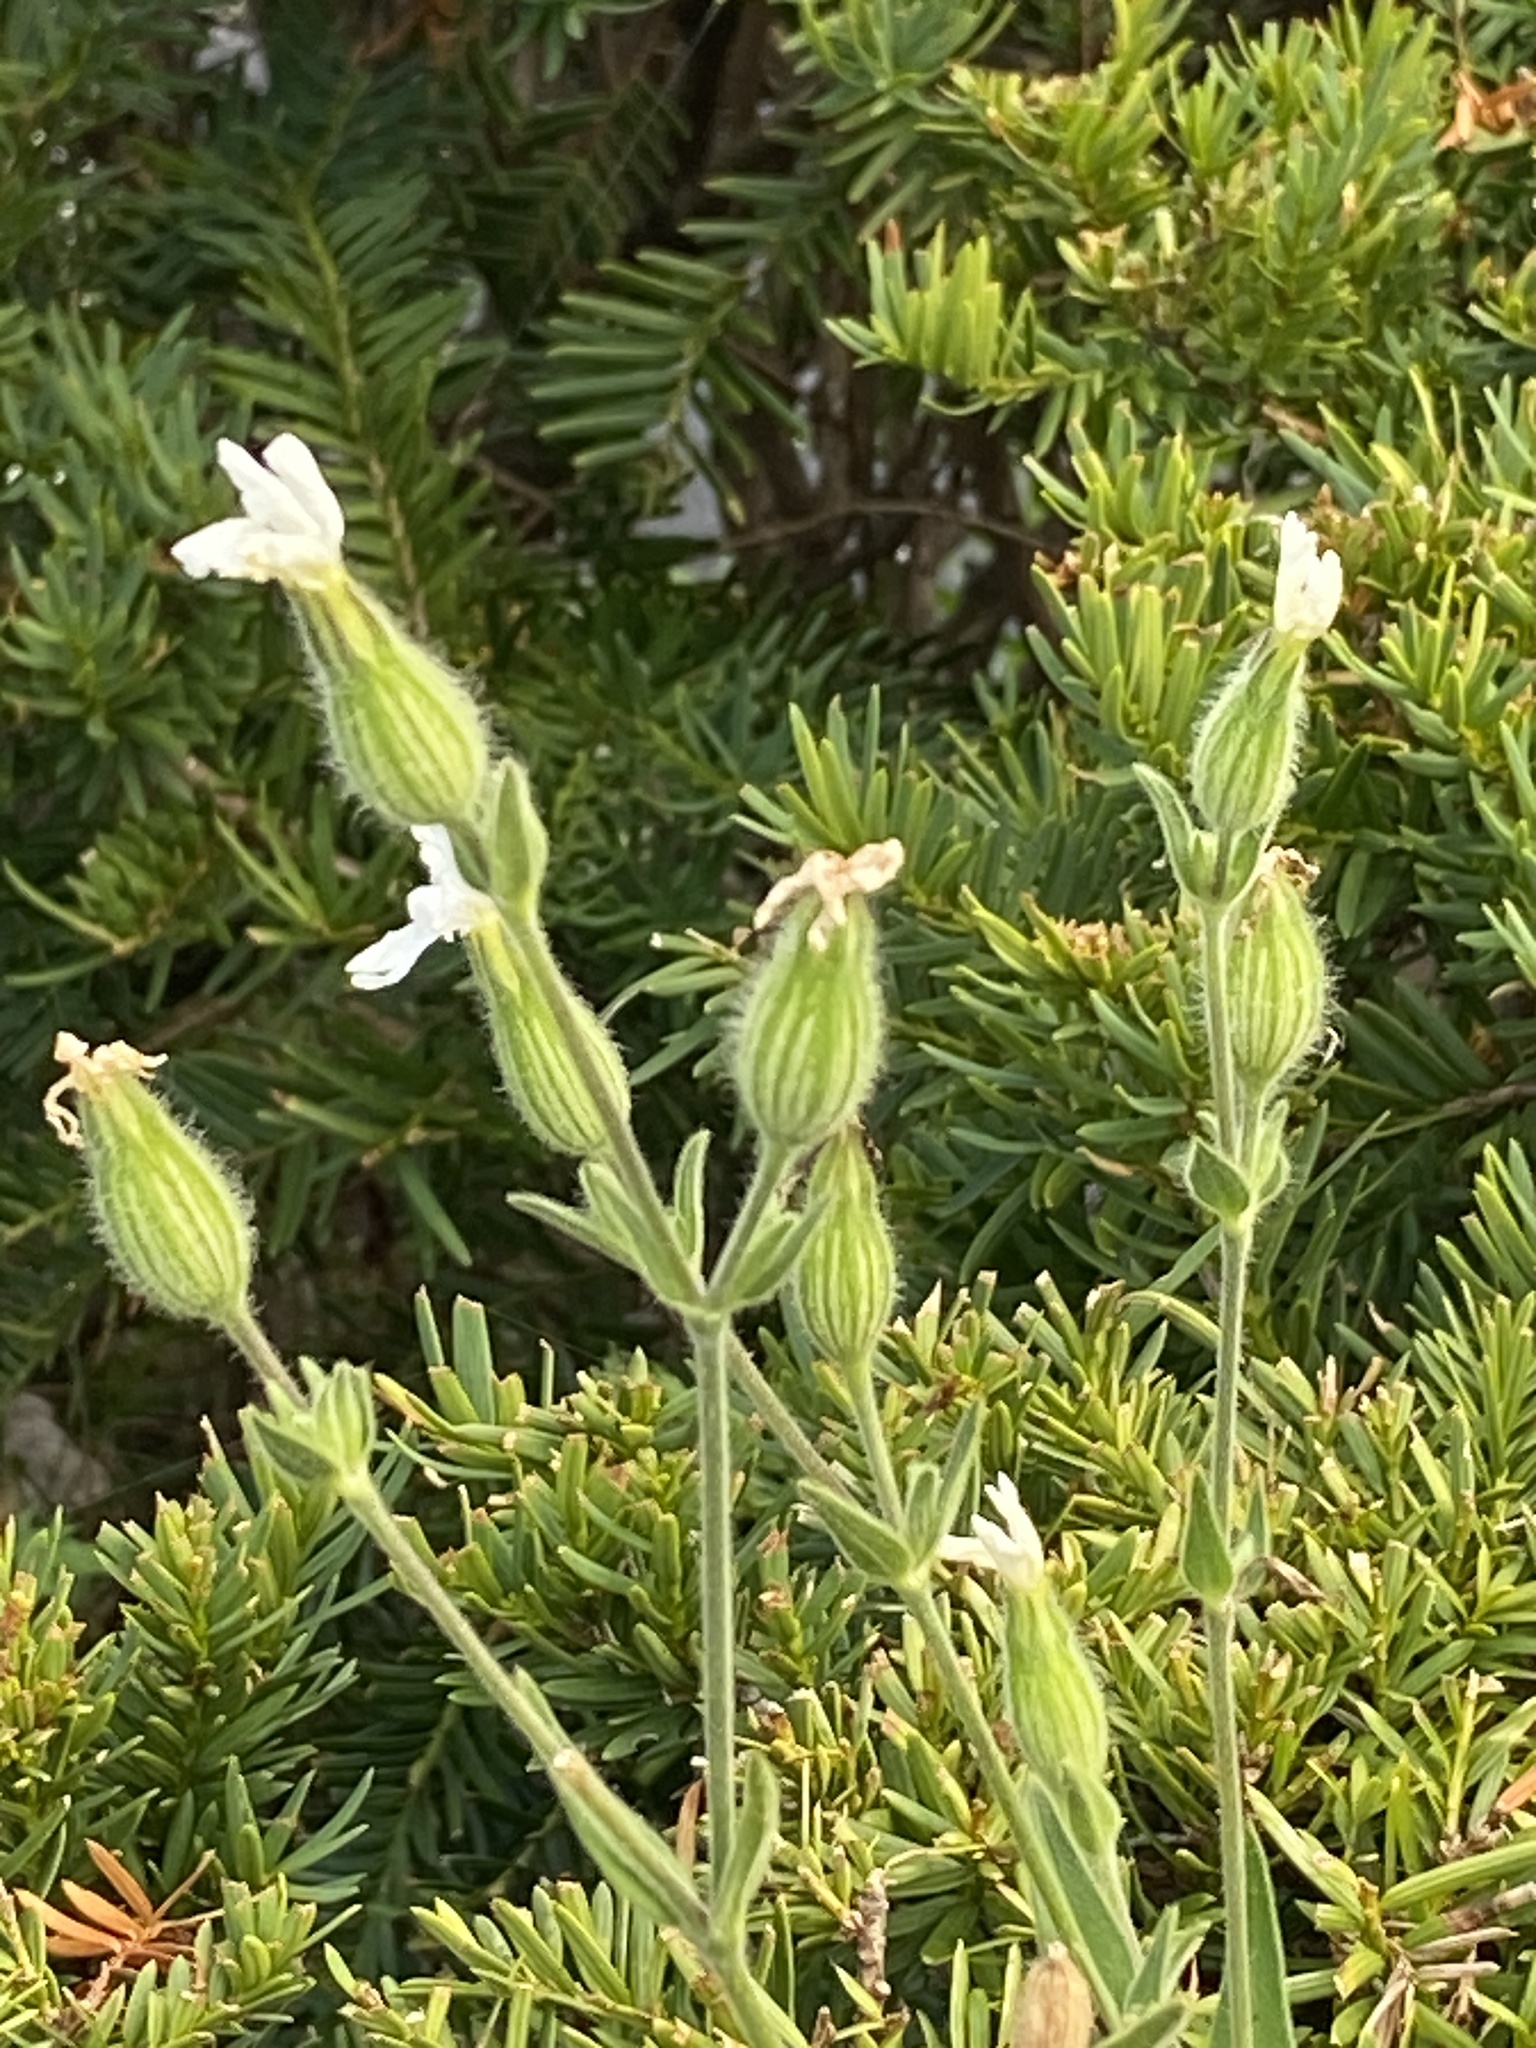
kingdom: Plantae
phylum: Tracheophyta
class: Magnoliopsida
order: Caryophyllales
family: Caryophyllaceae
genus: Silene
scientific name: Silene latifolia
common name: White campion
